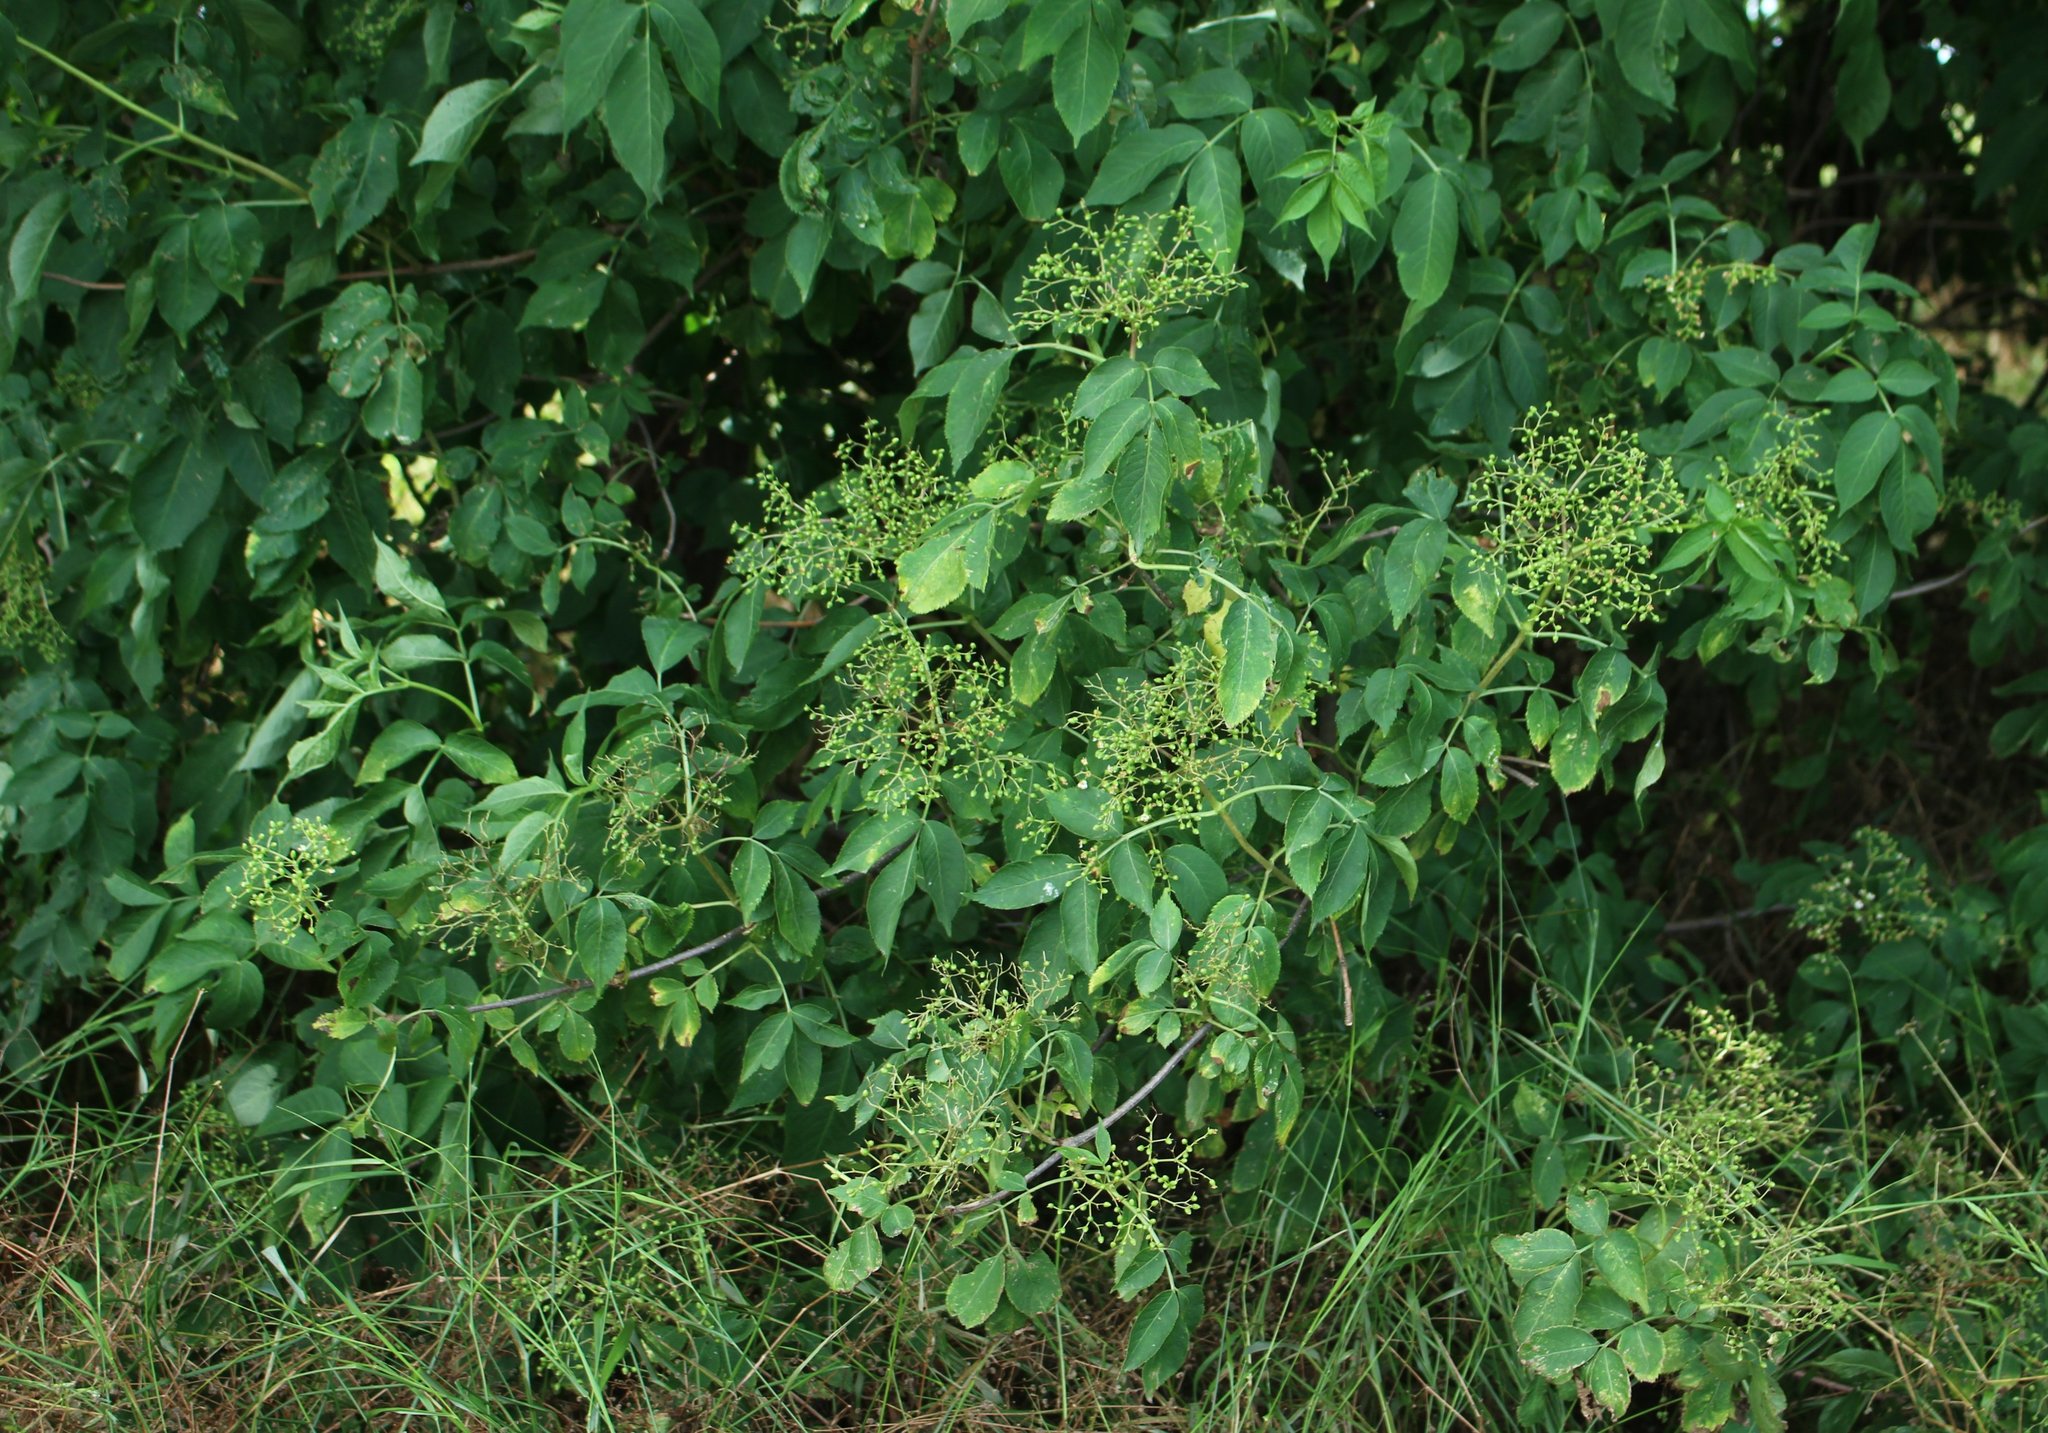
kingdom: Plantae
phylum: Tracheophyta
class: Magnoliopsida
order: Dipsacales
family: Viburnaceae
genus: Sambucus
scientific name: Sambucus nigra
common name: Elder
